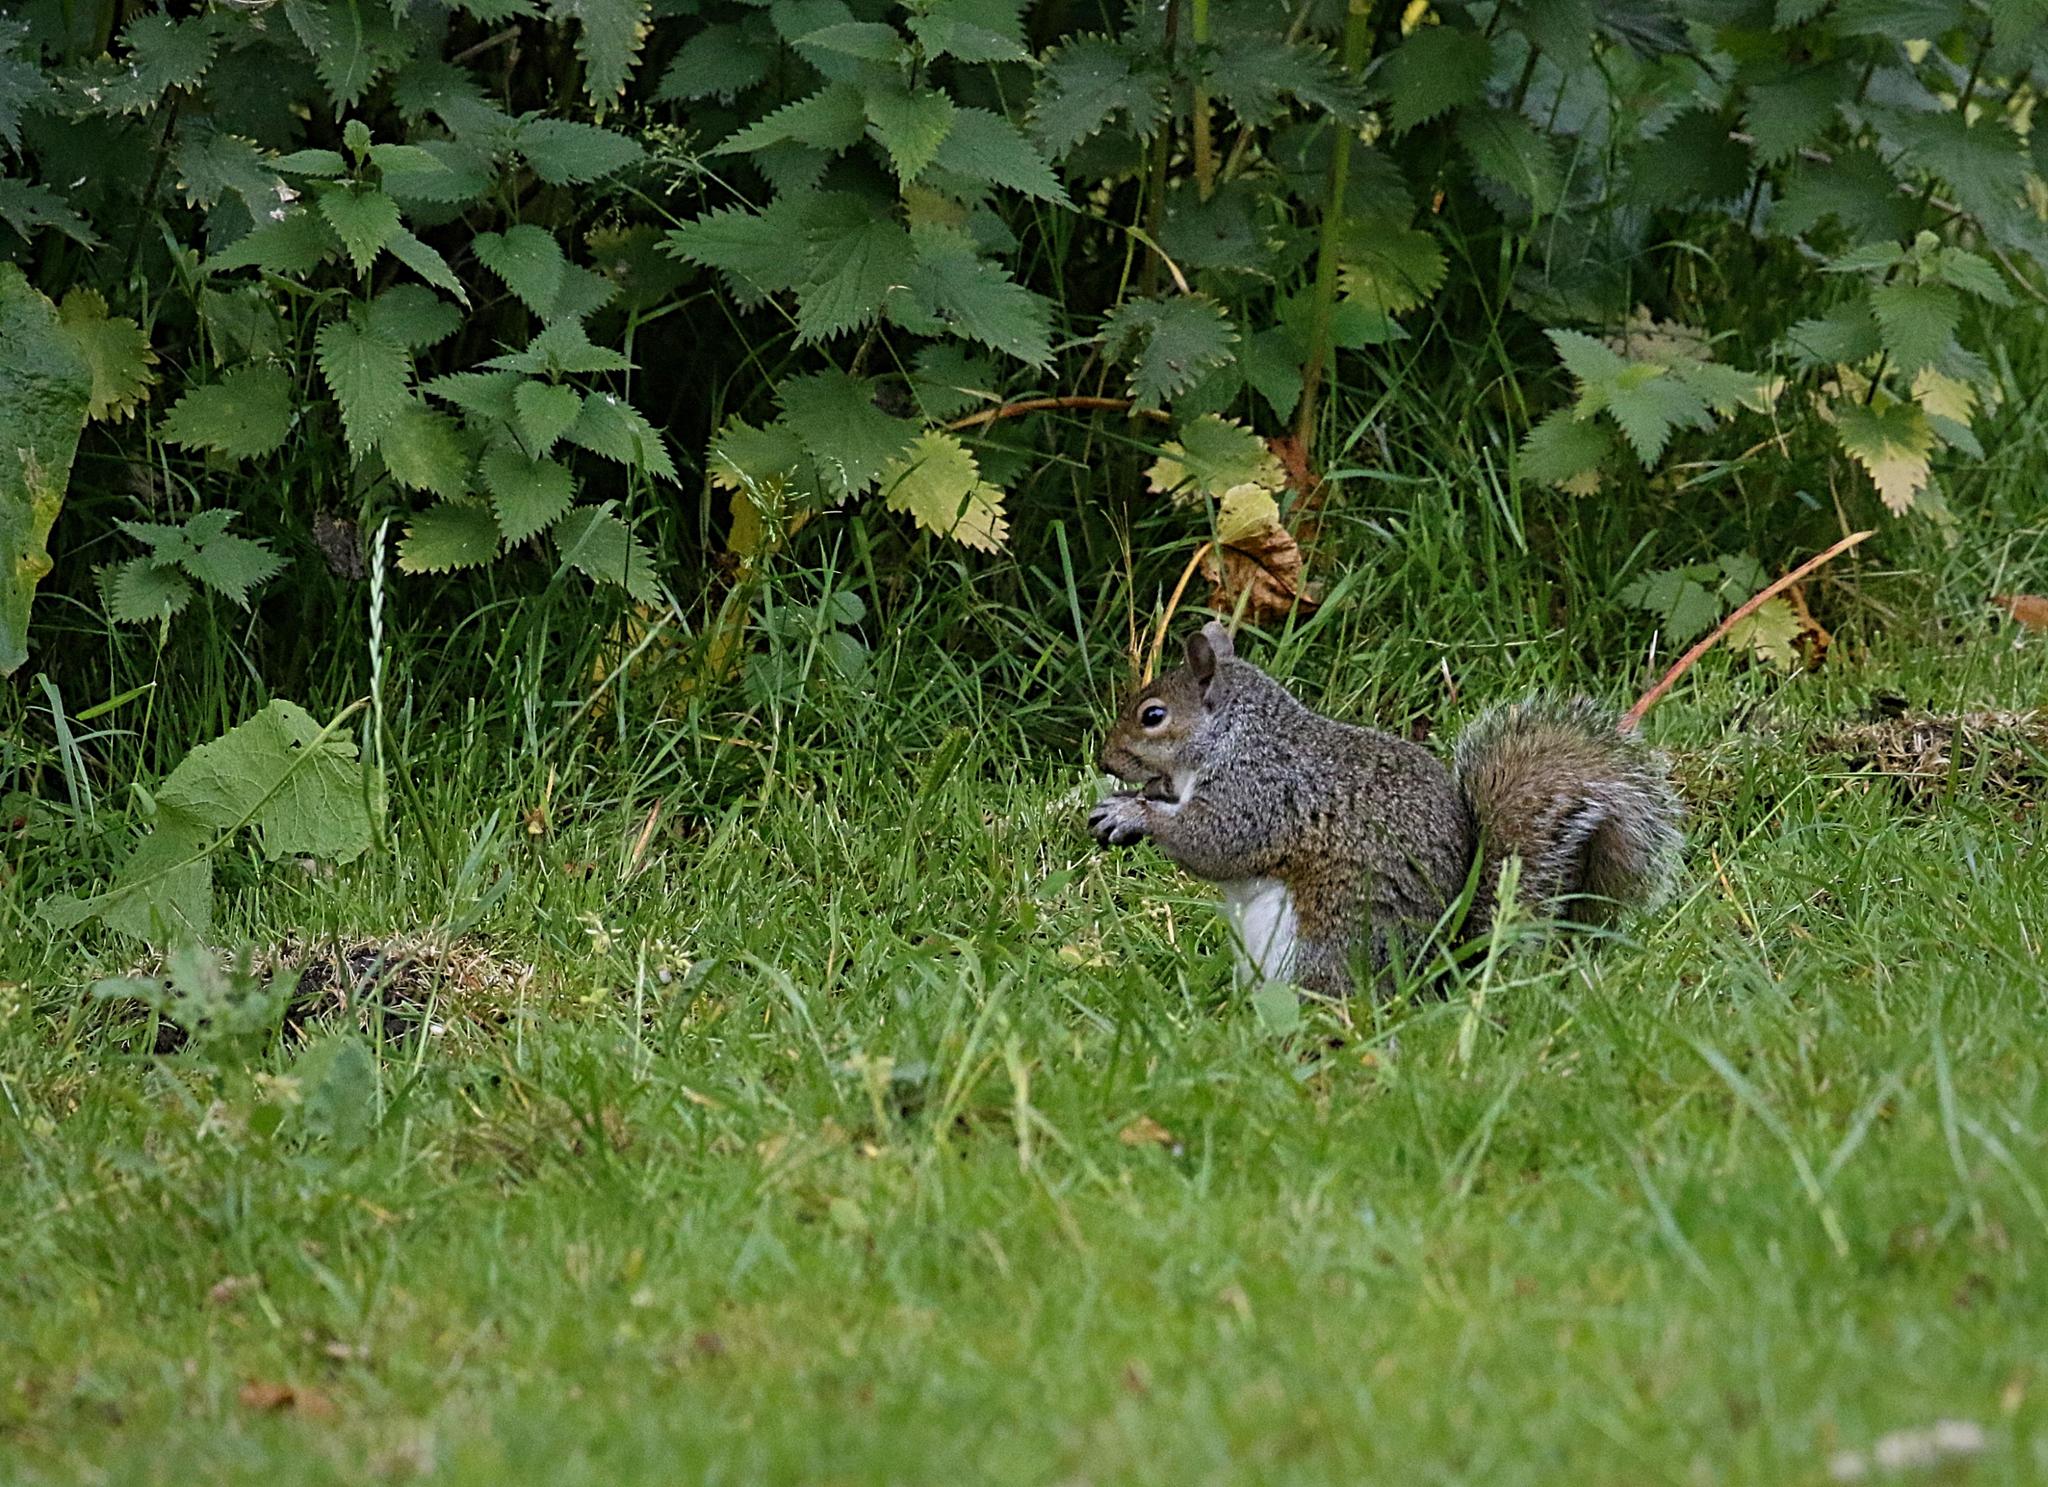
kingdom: Animalia
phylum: Chordata
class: Mammalia
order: Rodentia
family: Sciuridae
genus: Sciurus
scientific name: Sciurus carolinensis
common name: Eastern gray squirrel
